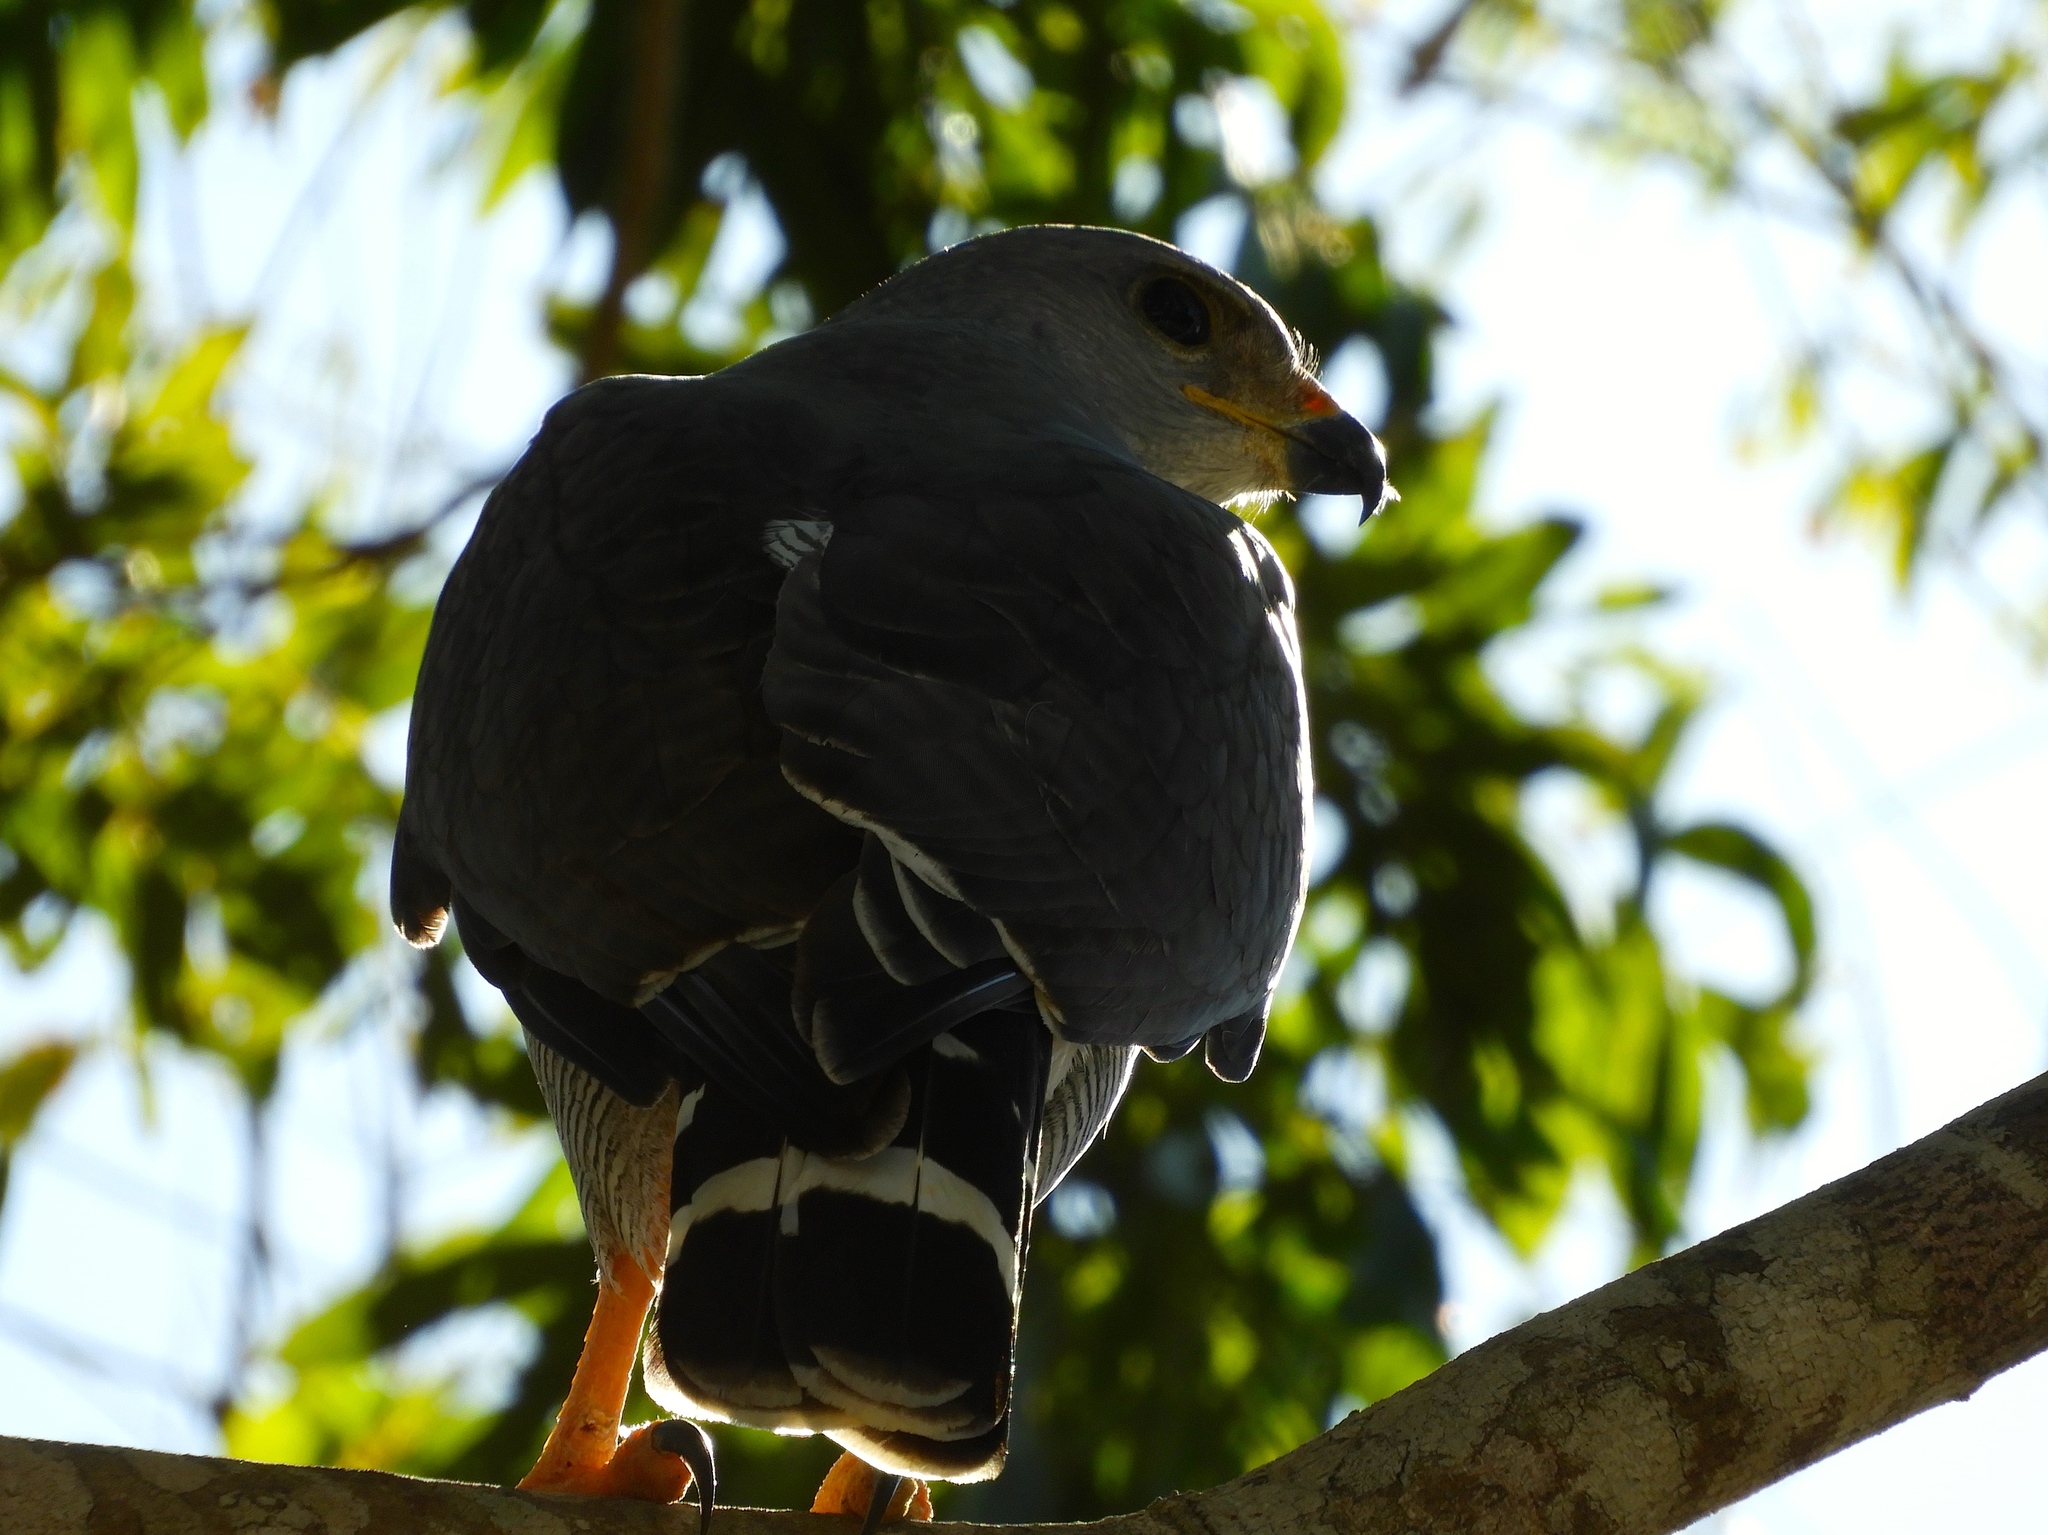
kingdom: Animalia
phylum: Chordata
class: Aves
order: Accipitriformes
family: Accipitridae
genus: Buteo
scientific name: Buteo nitidus
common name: Grey-lined hawk
